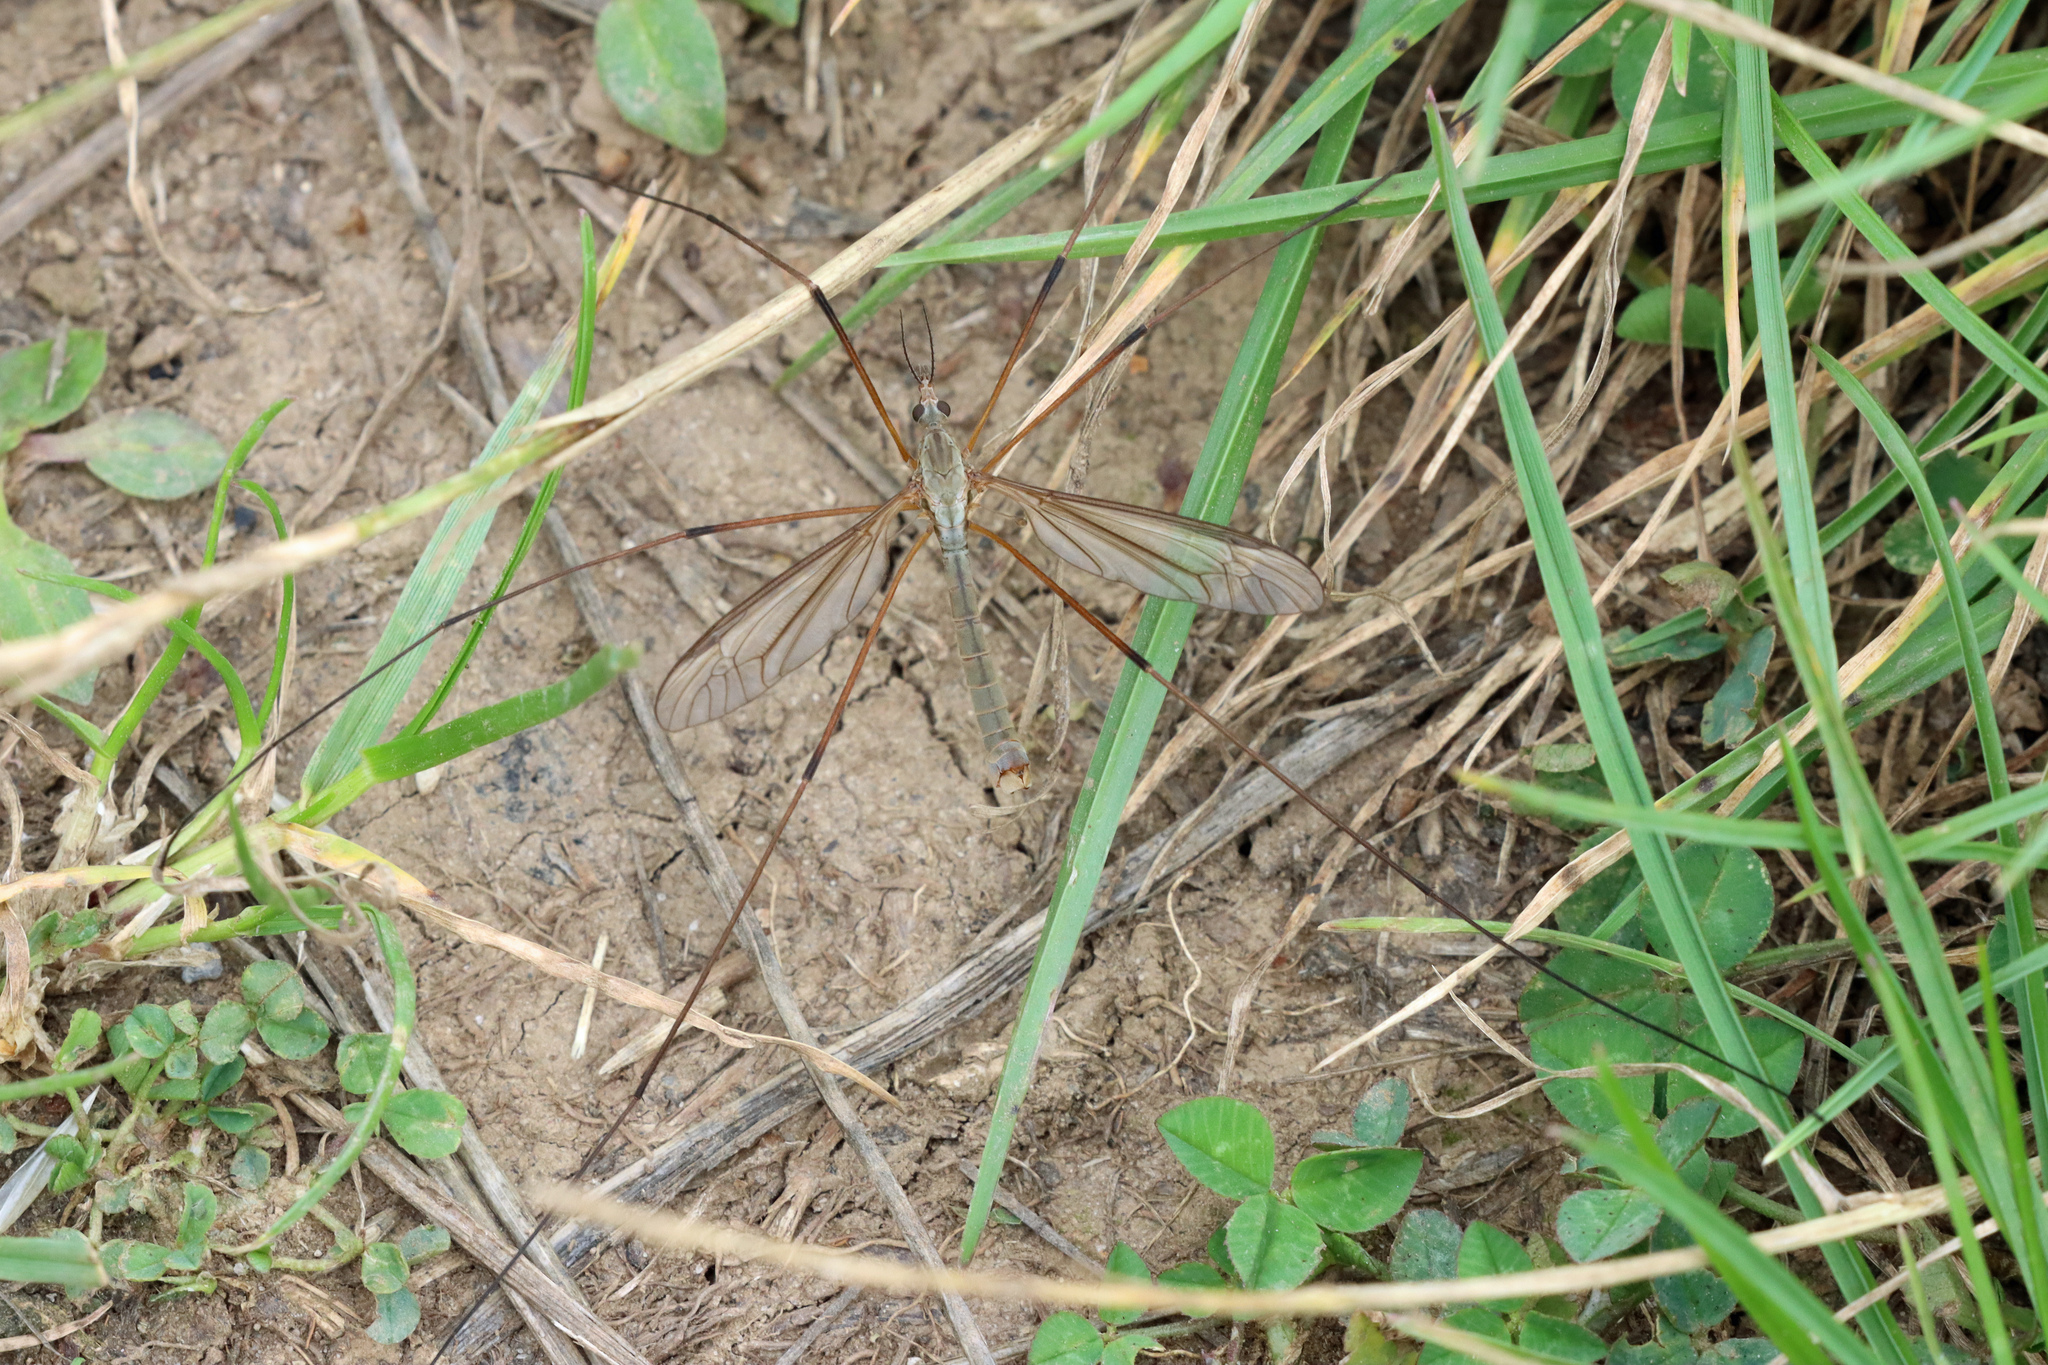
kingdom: Animalia
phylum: Arthropoda
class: Insecta
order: Diptera
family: Tipulidae
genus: Tipula
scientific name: Tipula paludosa
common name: European cranefly
